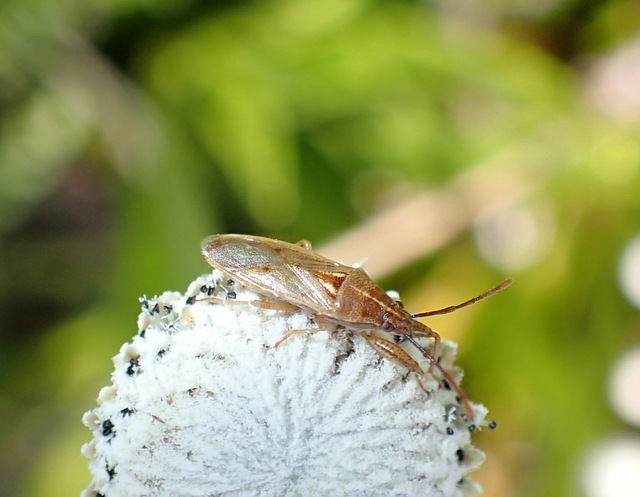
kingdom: Animalia
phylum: Arthropoda
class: Insecta
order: Hemiptera
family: Pachygronthidae
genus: Oedancala
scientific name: Oedancala crassimana
